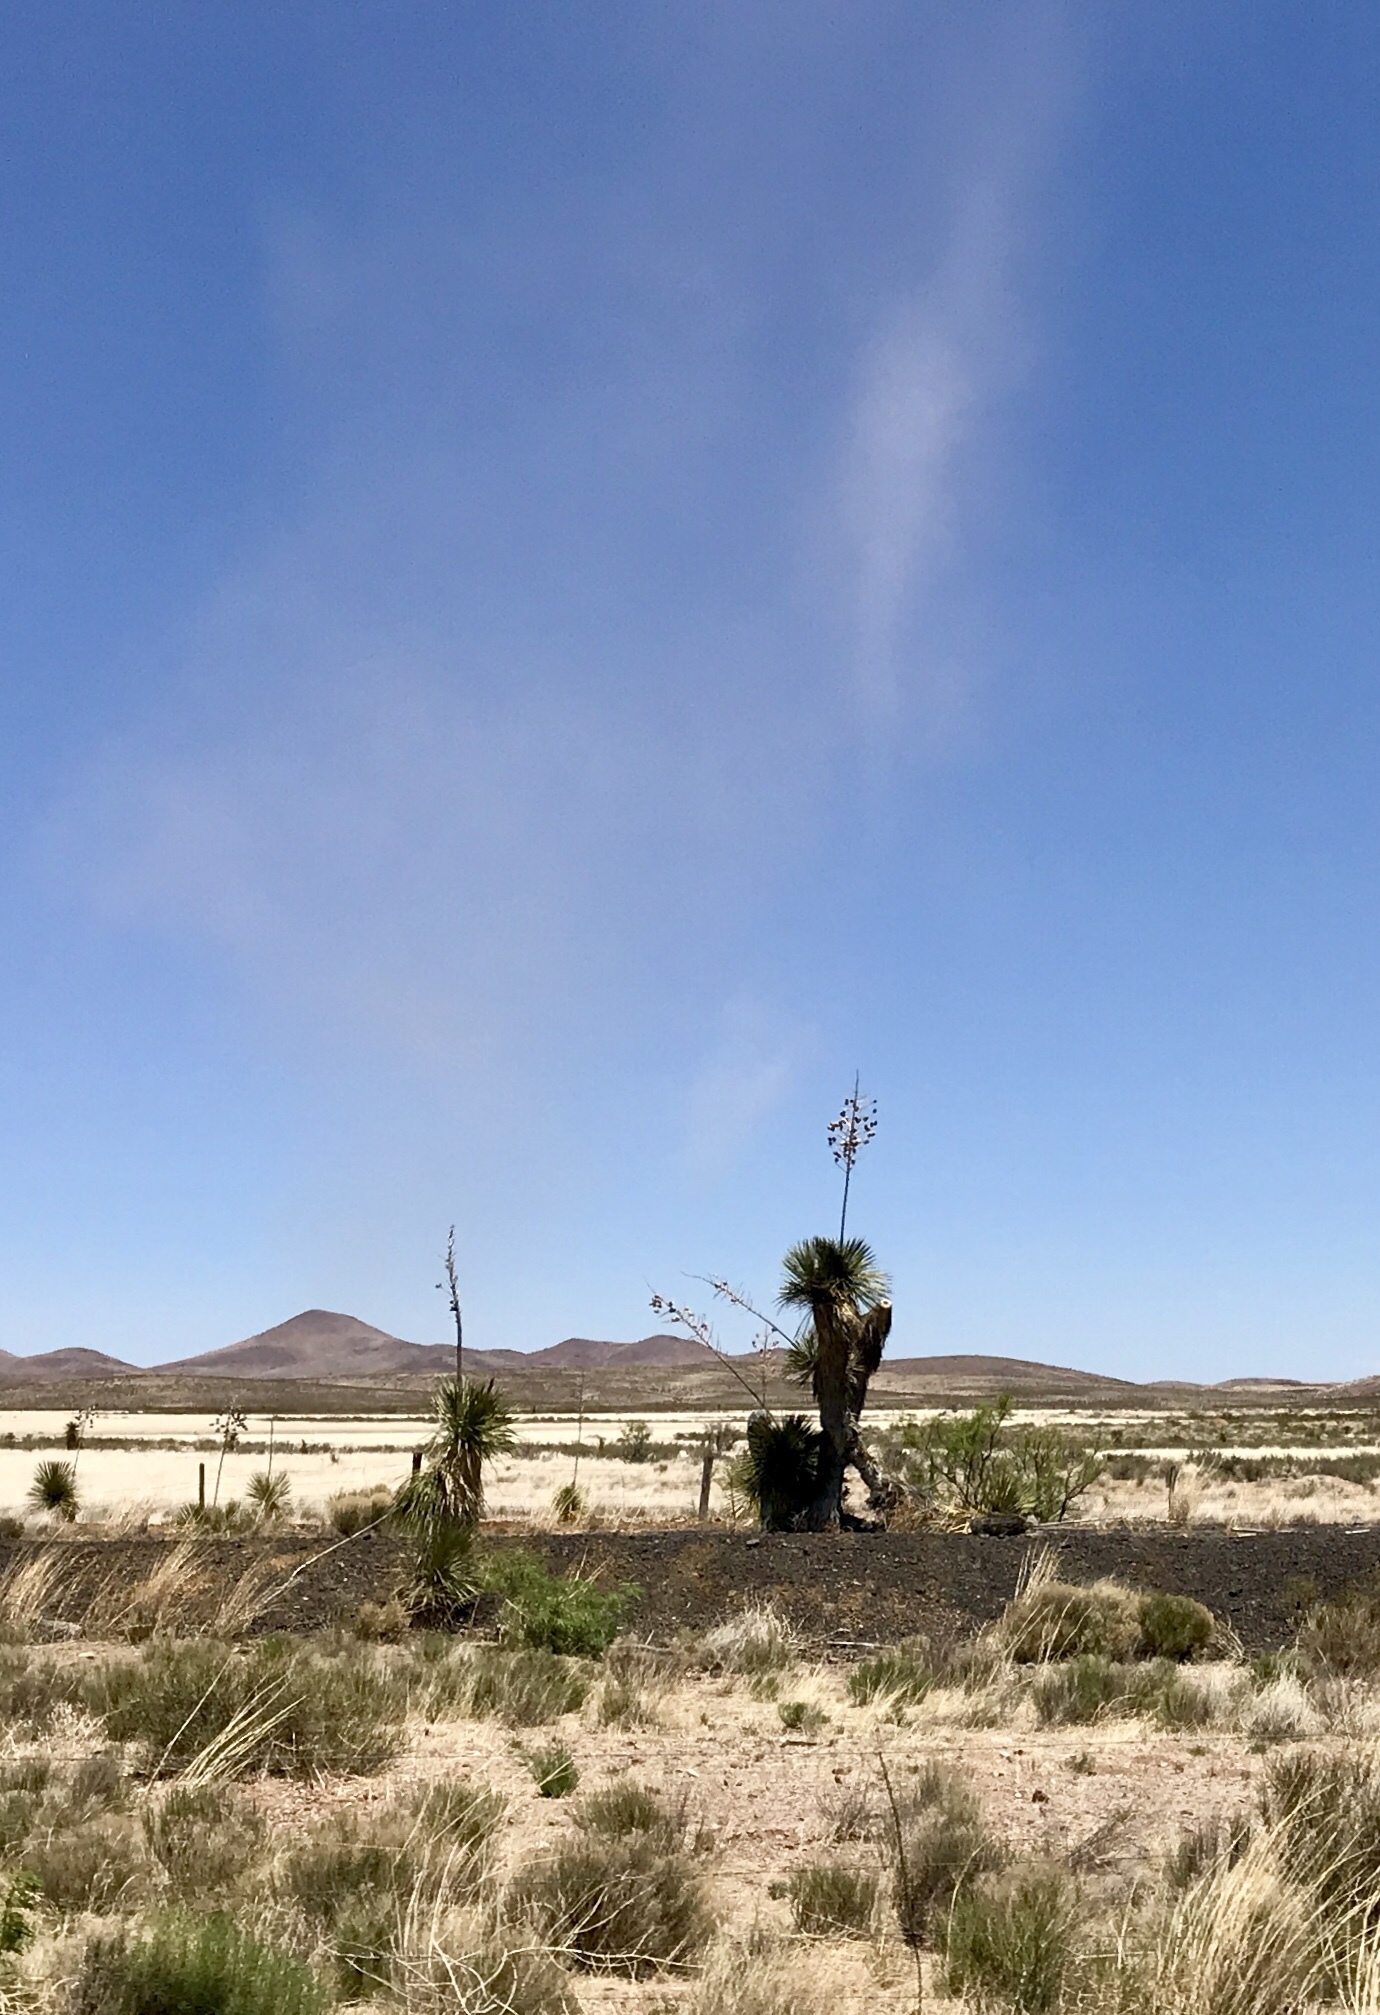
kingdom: Plantae
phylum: Tracheophyta
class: Liliopsida
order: Asparagales
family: Asparagaceae
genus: Yucca
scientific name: Yucca elata
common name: Palmella
